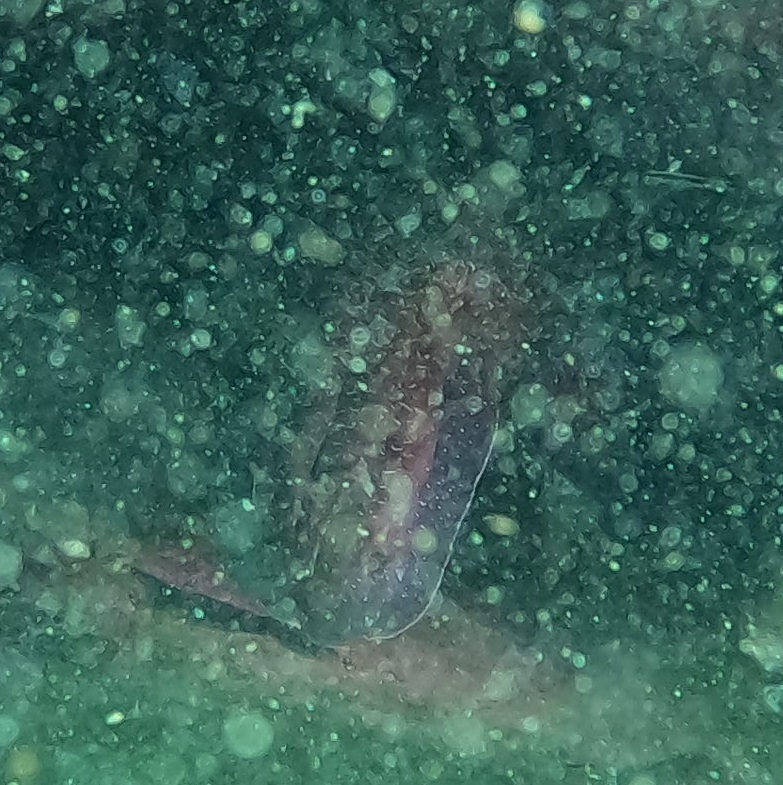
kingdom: Animalia
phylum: Mollusca
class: Cephalopoda
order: Sepiida
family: Sepiidae
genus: Ascarosepion
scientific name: Ascarosepion apama
